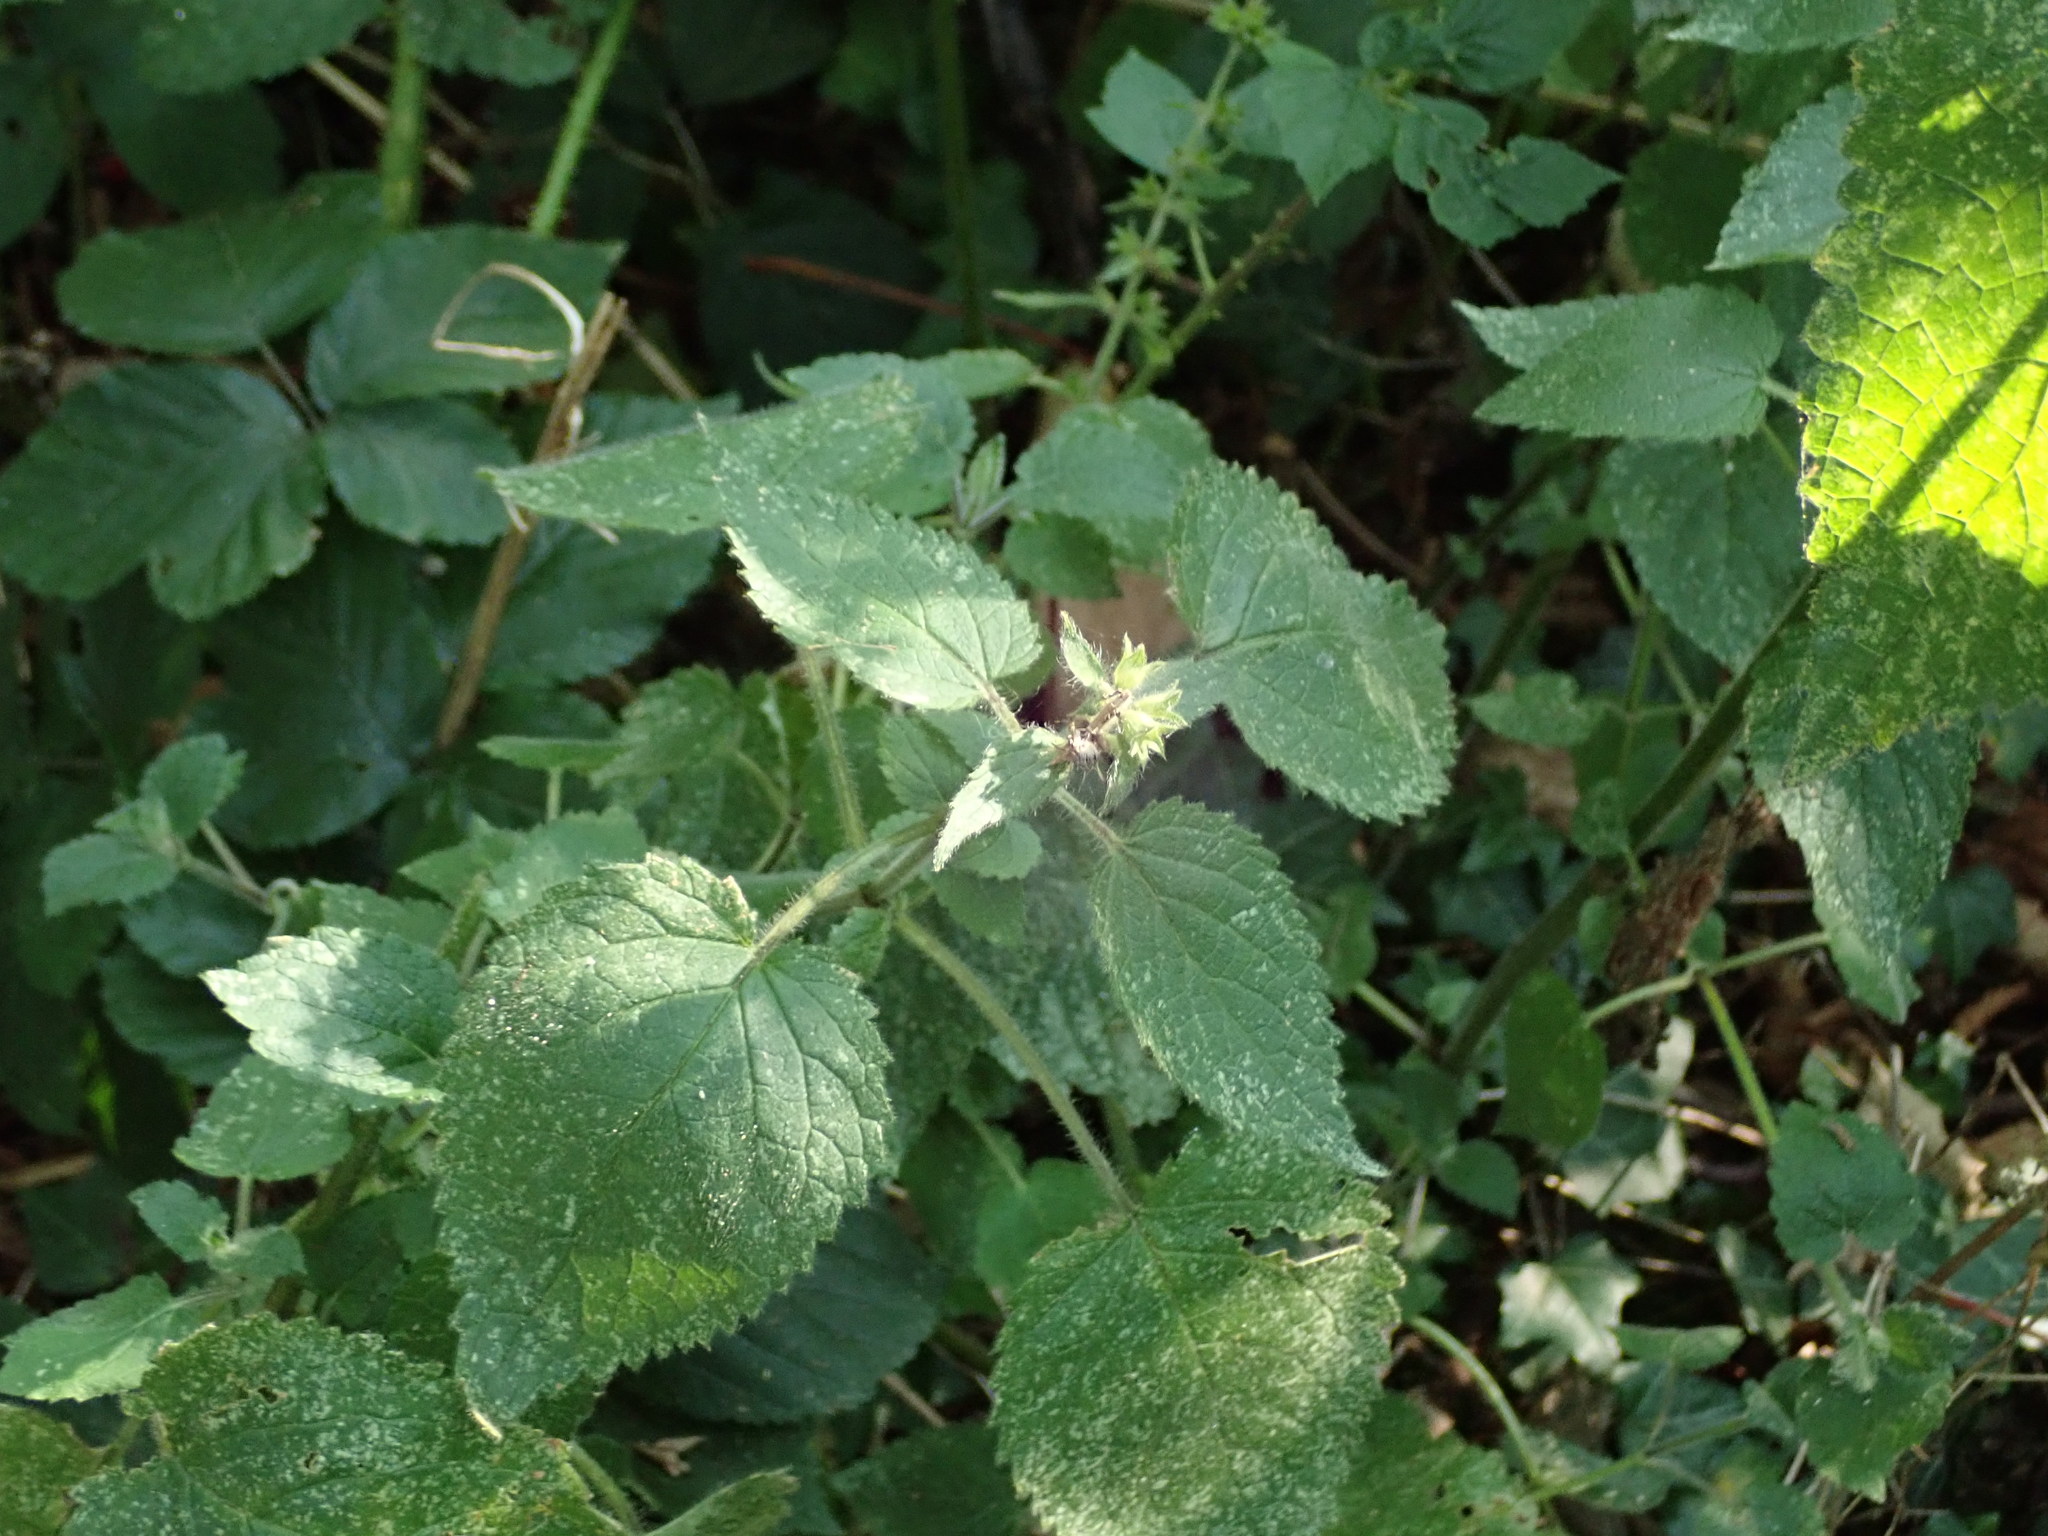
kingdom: Plantae
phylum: Tracheophyta
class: Magnoliopsida
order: Lamiales
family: Lamiaceae
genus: Stachys
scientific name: Stachys sylvatica
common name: Hedge woundwort
